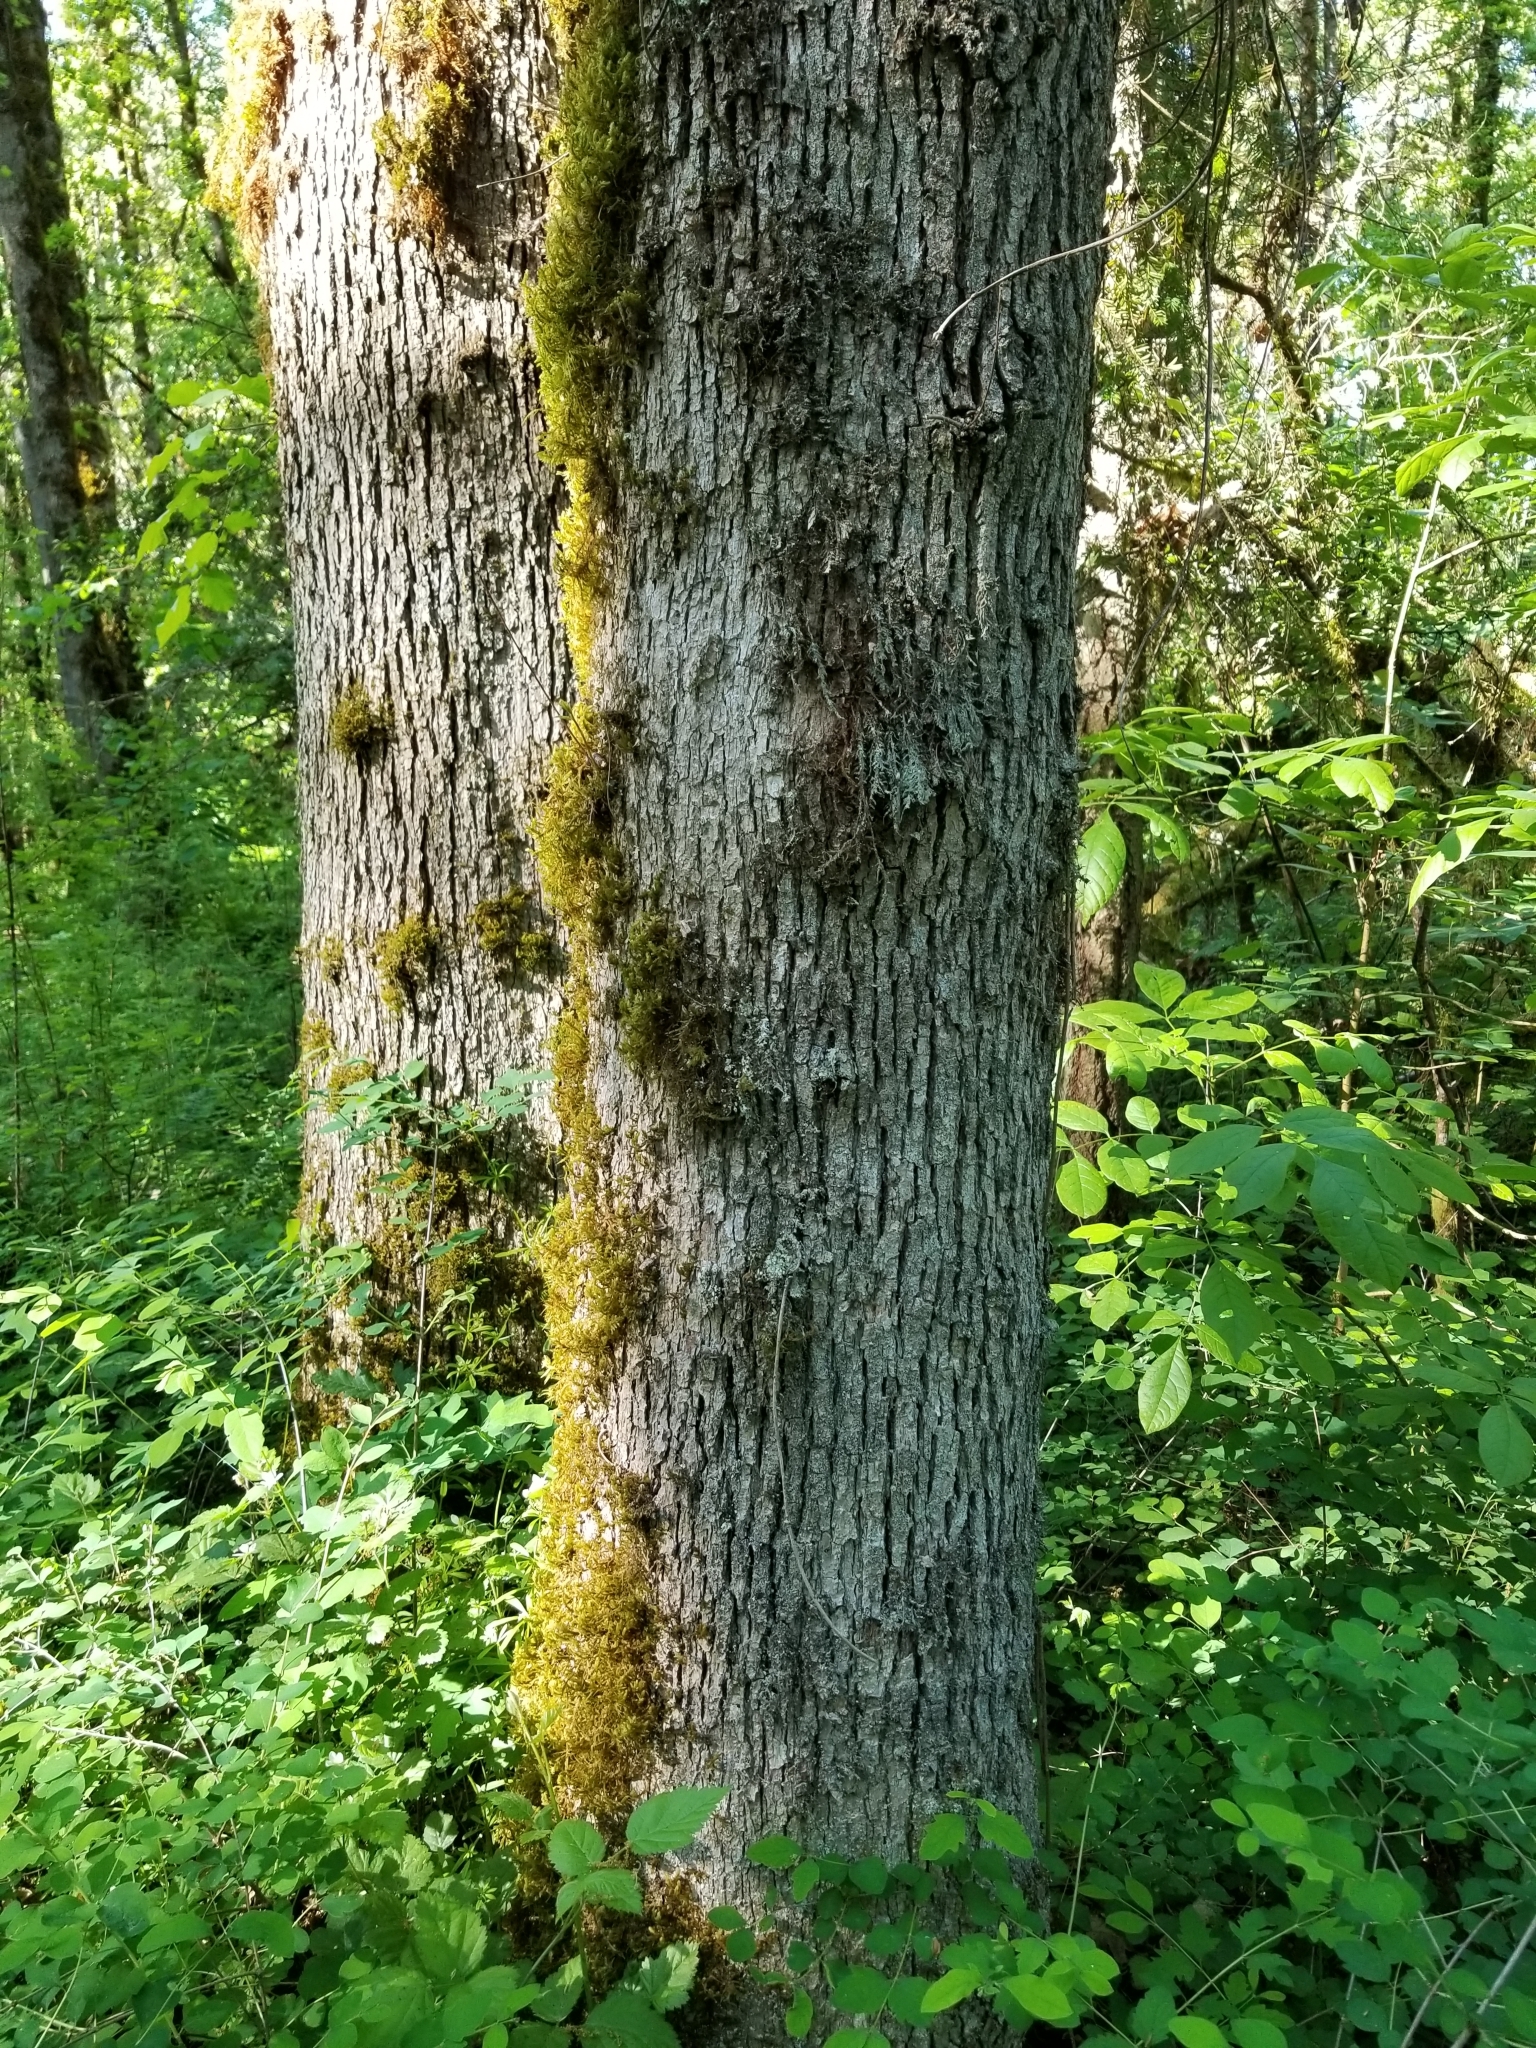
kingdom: Plantae
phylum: Tracheophyta
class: Magnoliopsida
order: Fagales
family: Fagaceae
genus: Quercus
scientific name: Quercus garryana
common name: Garry oak
